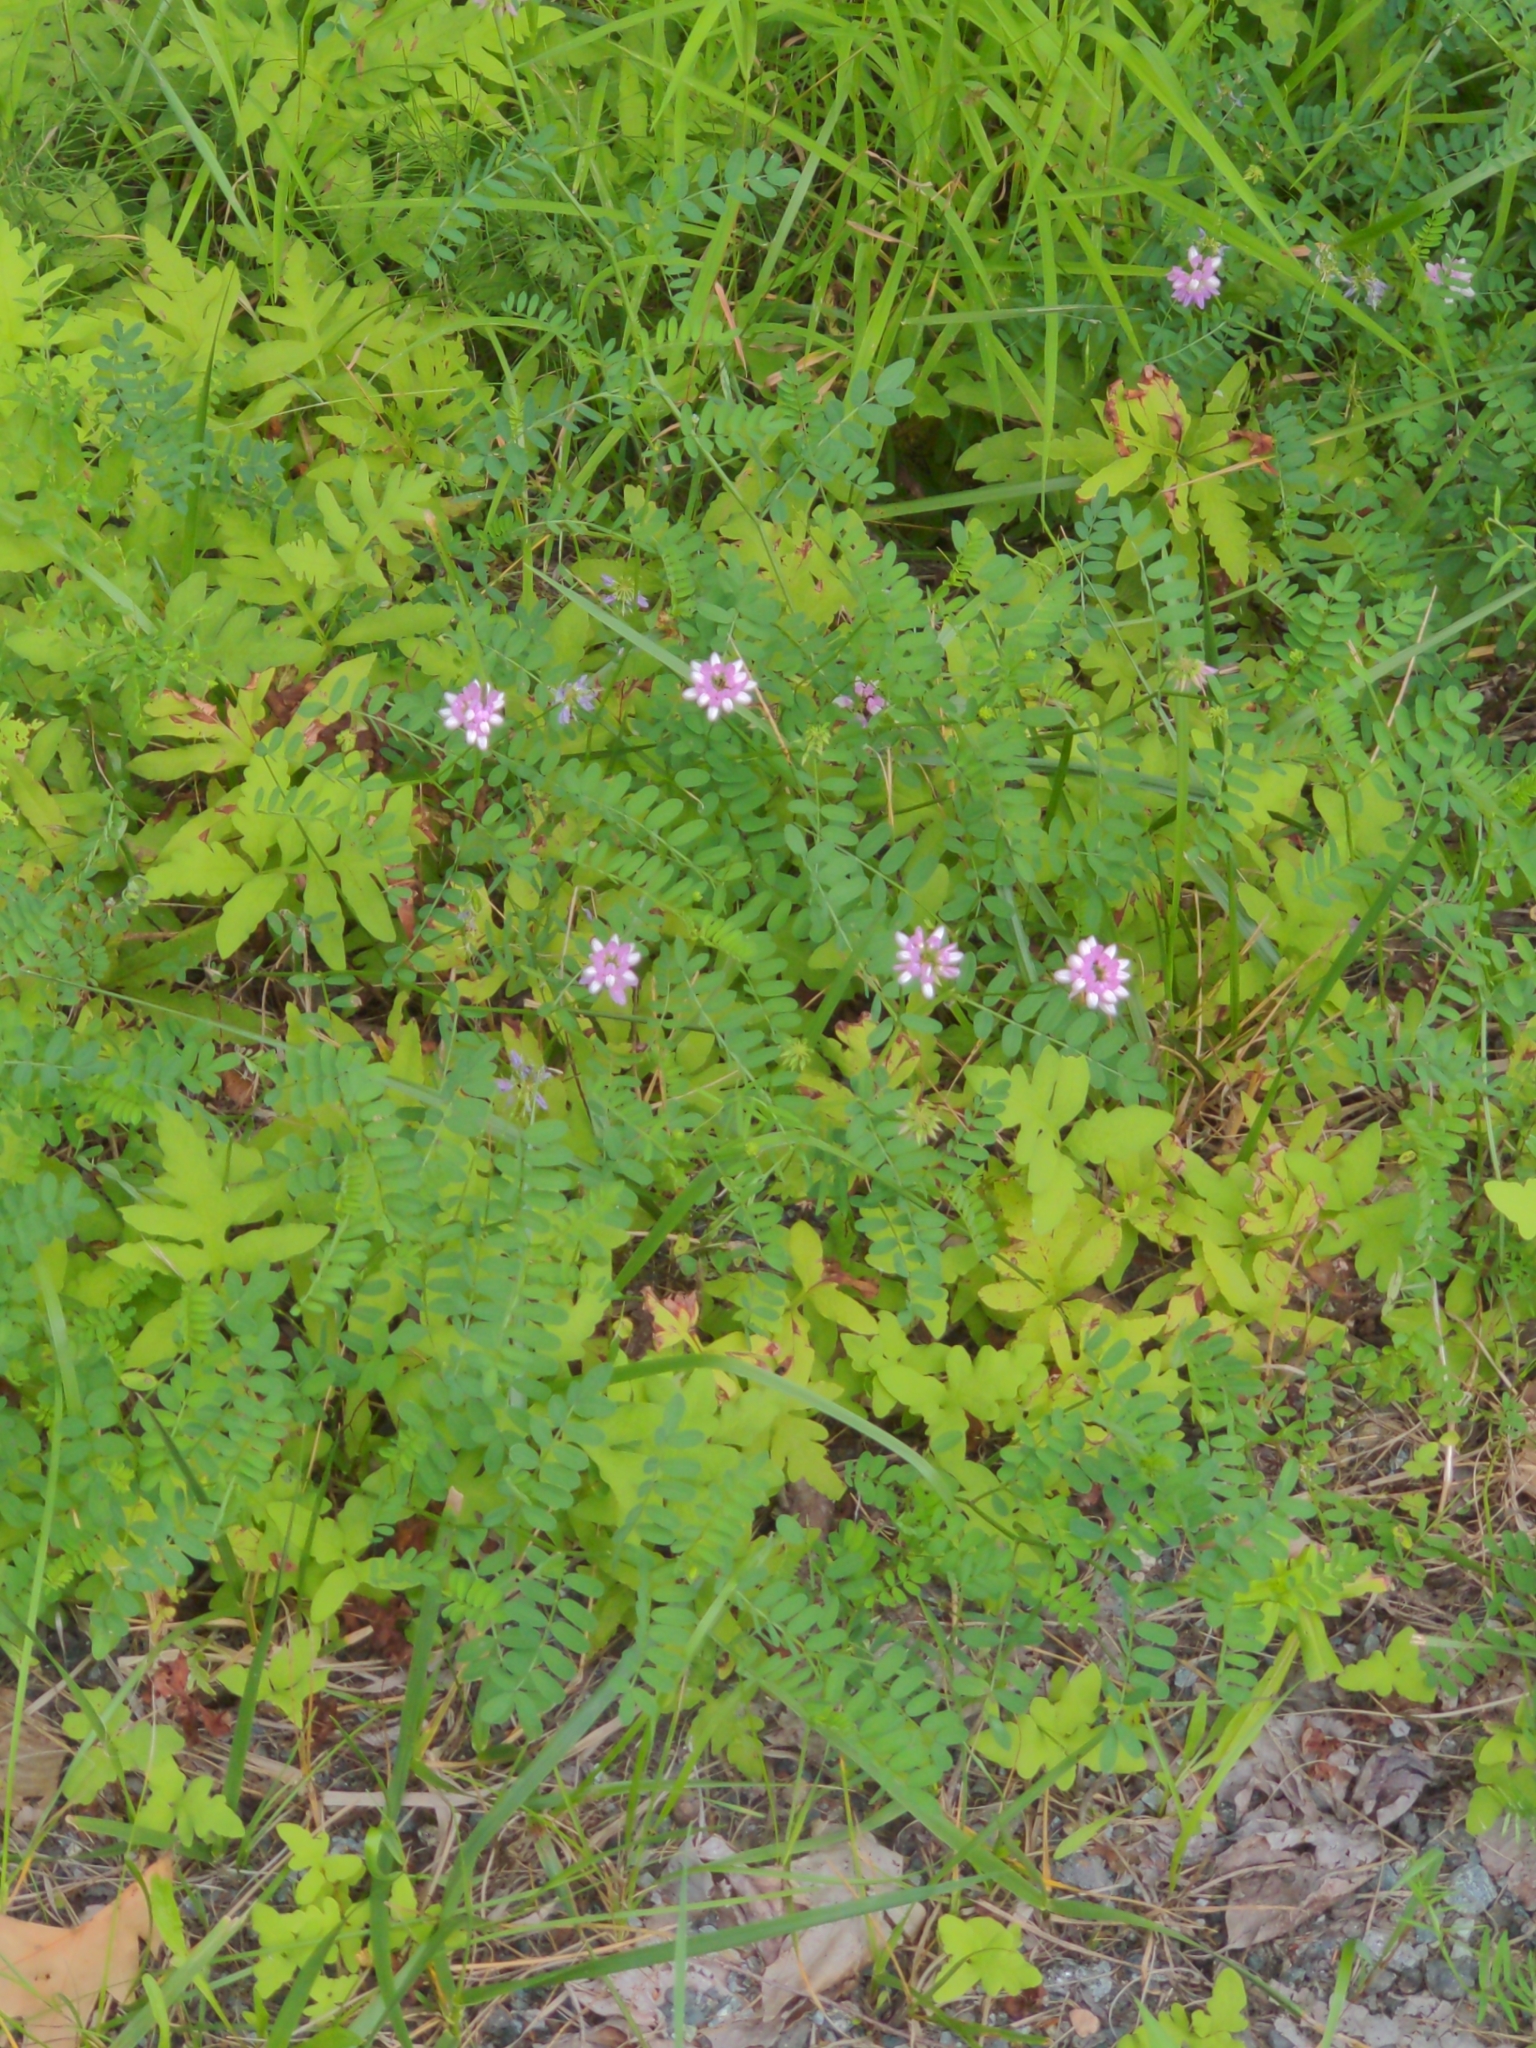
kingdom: Plantae
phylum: Tracheophyta
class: Magnoliopsida
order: Fabales
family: Fabaceae
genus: Coronilla
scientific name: Coronilla varia
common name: Crownvetch
